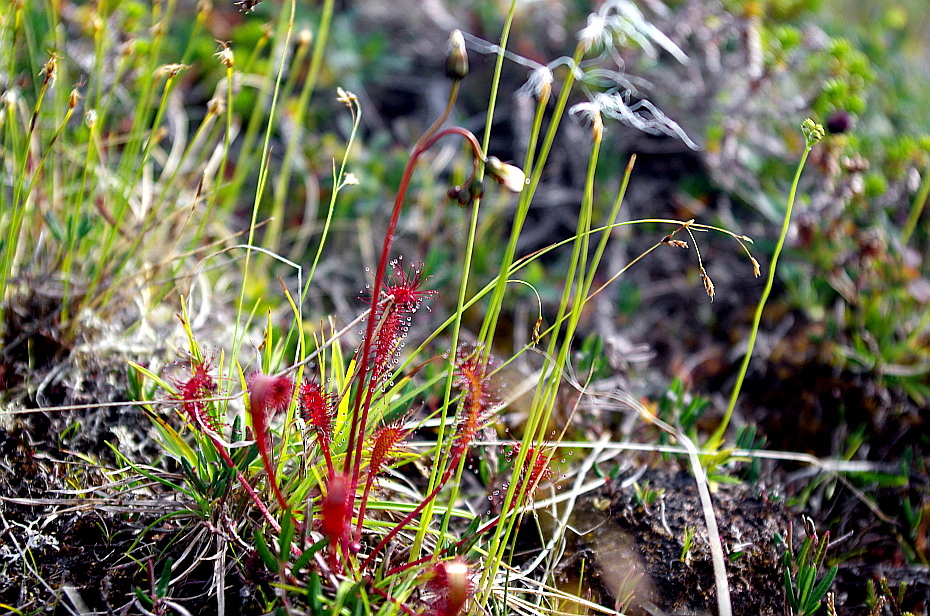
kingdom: Plantae
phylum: Tracheophyta
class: Magnoliopsida
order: Caryophyllales
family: Droseraceae
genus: Drosera
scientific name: Drosera anglica
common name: Great sundew
